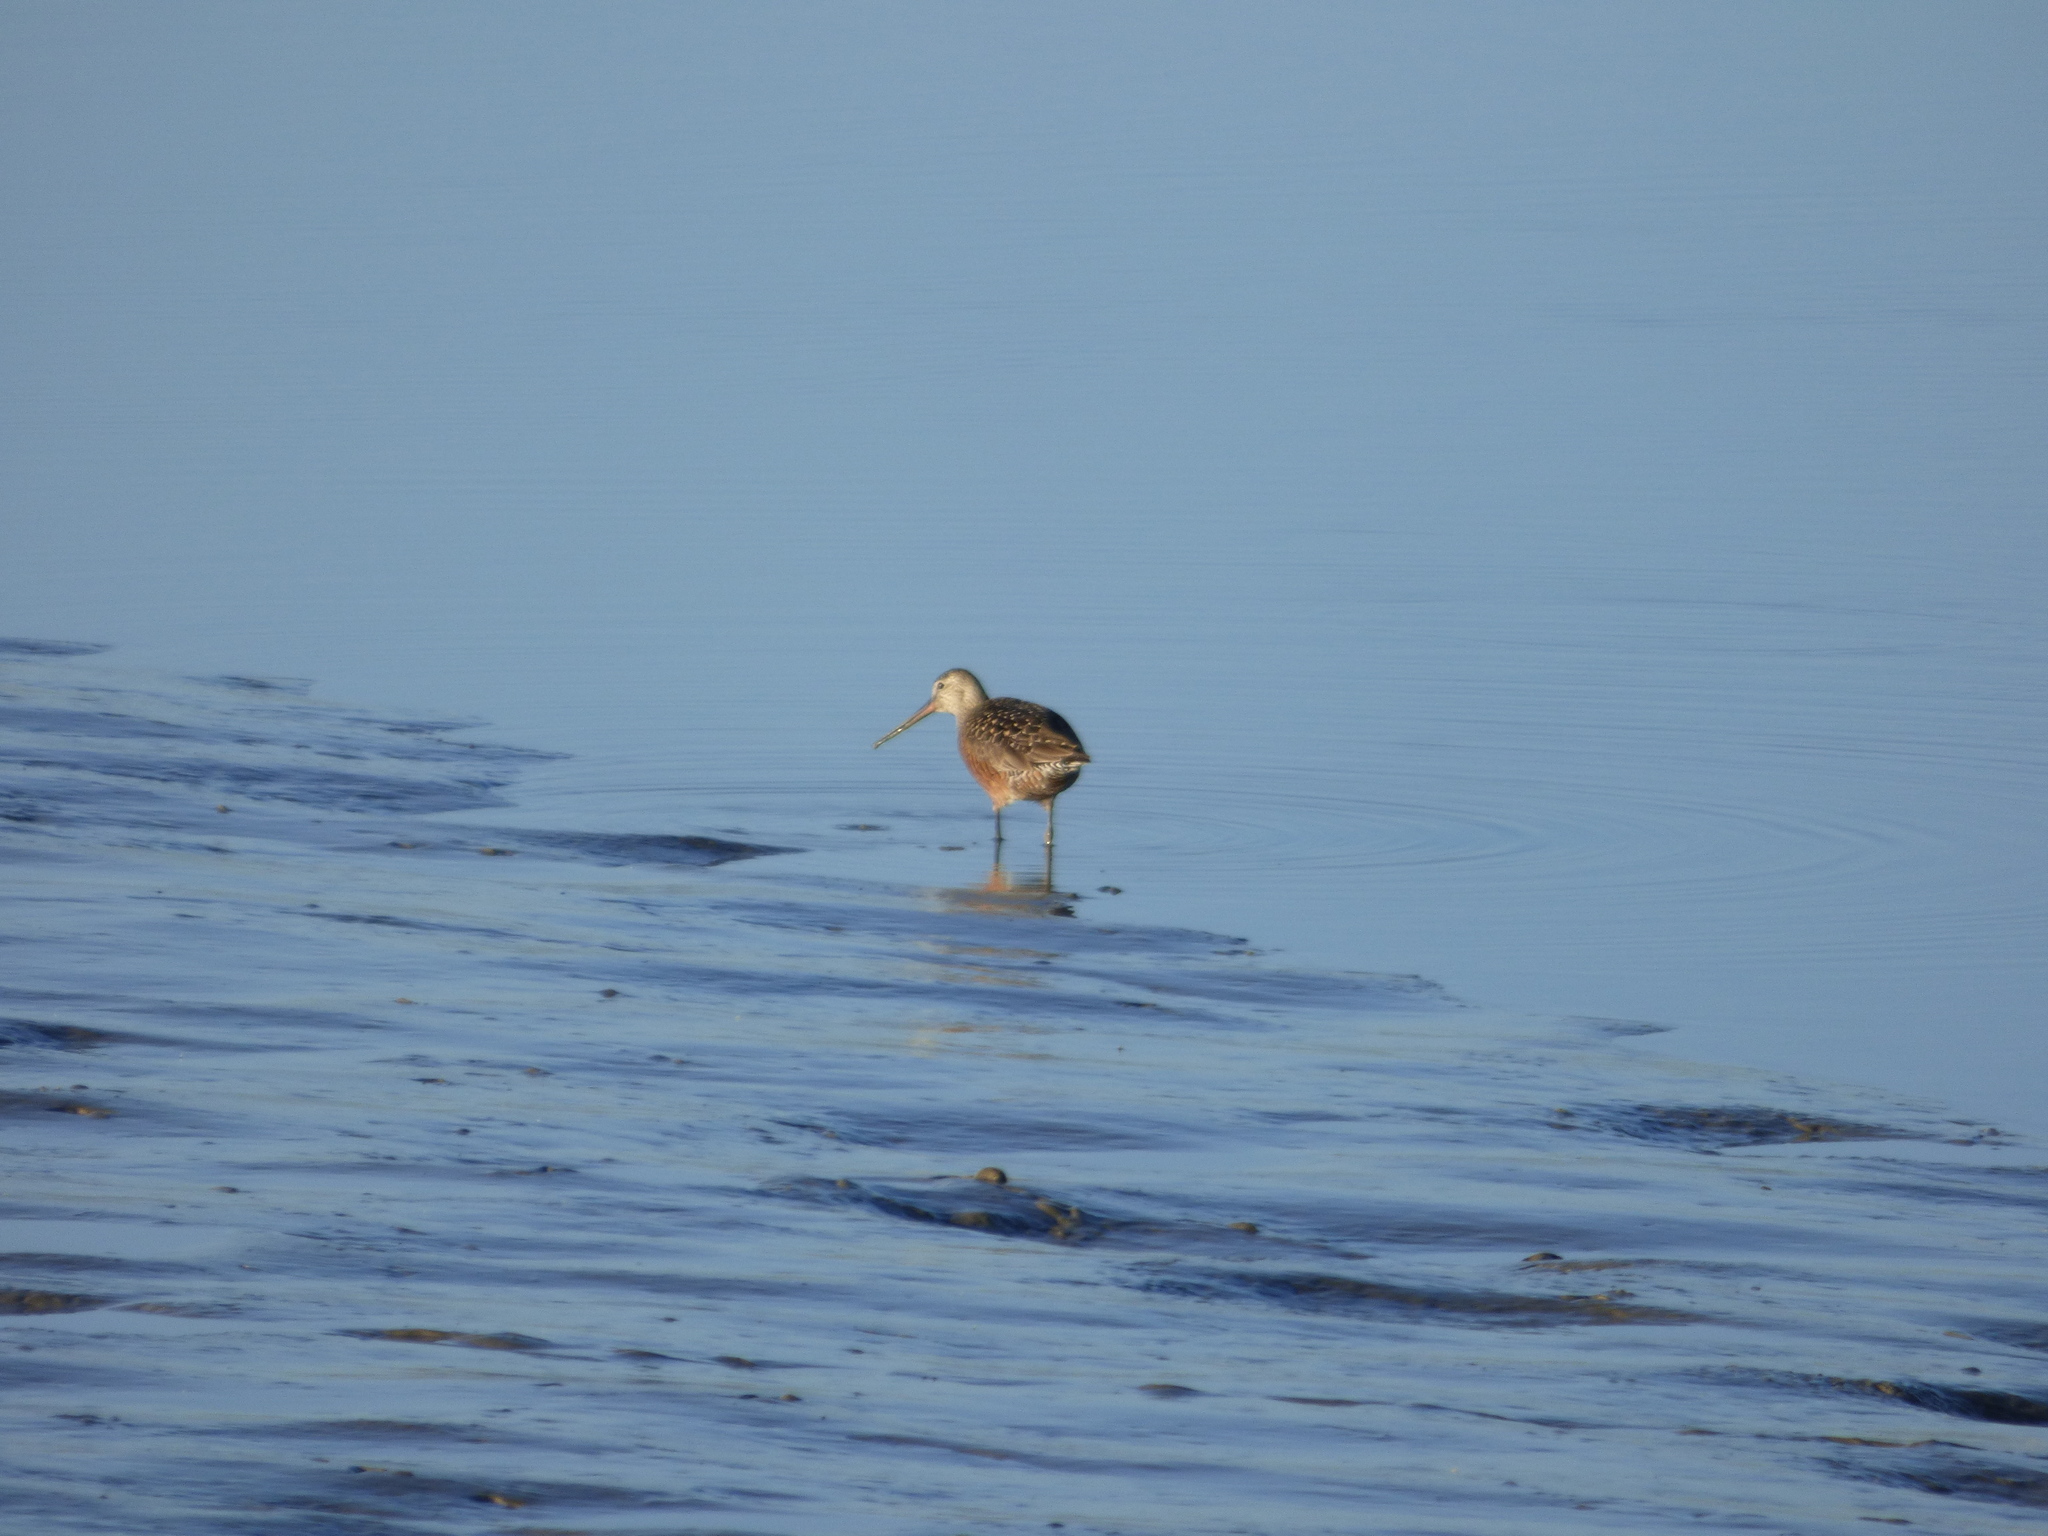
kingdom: Animalia
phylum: Chordata
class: Aves
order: Charadriiformes
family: Scolopacidae
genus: Limosa
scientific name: Limosa haemastica
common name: Hudsonian godwit
